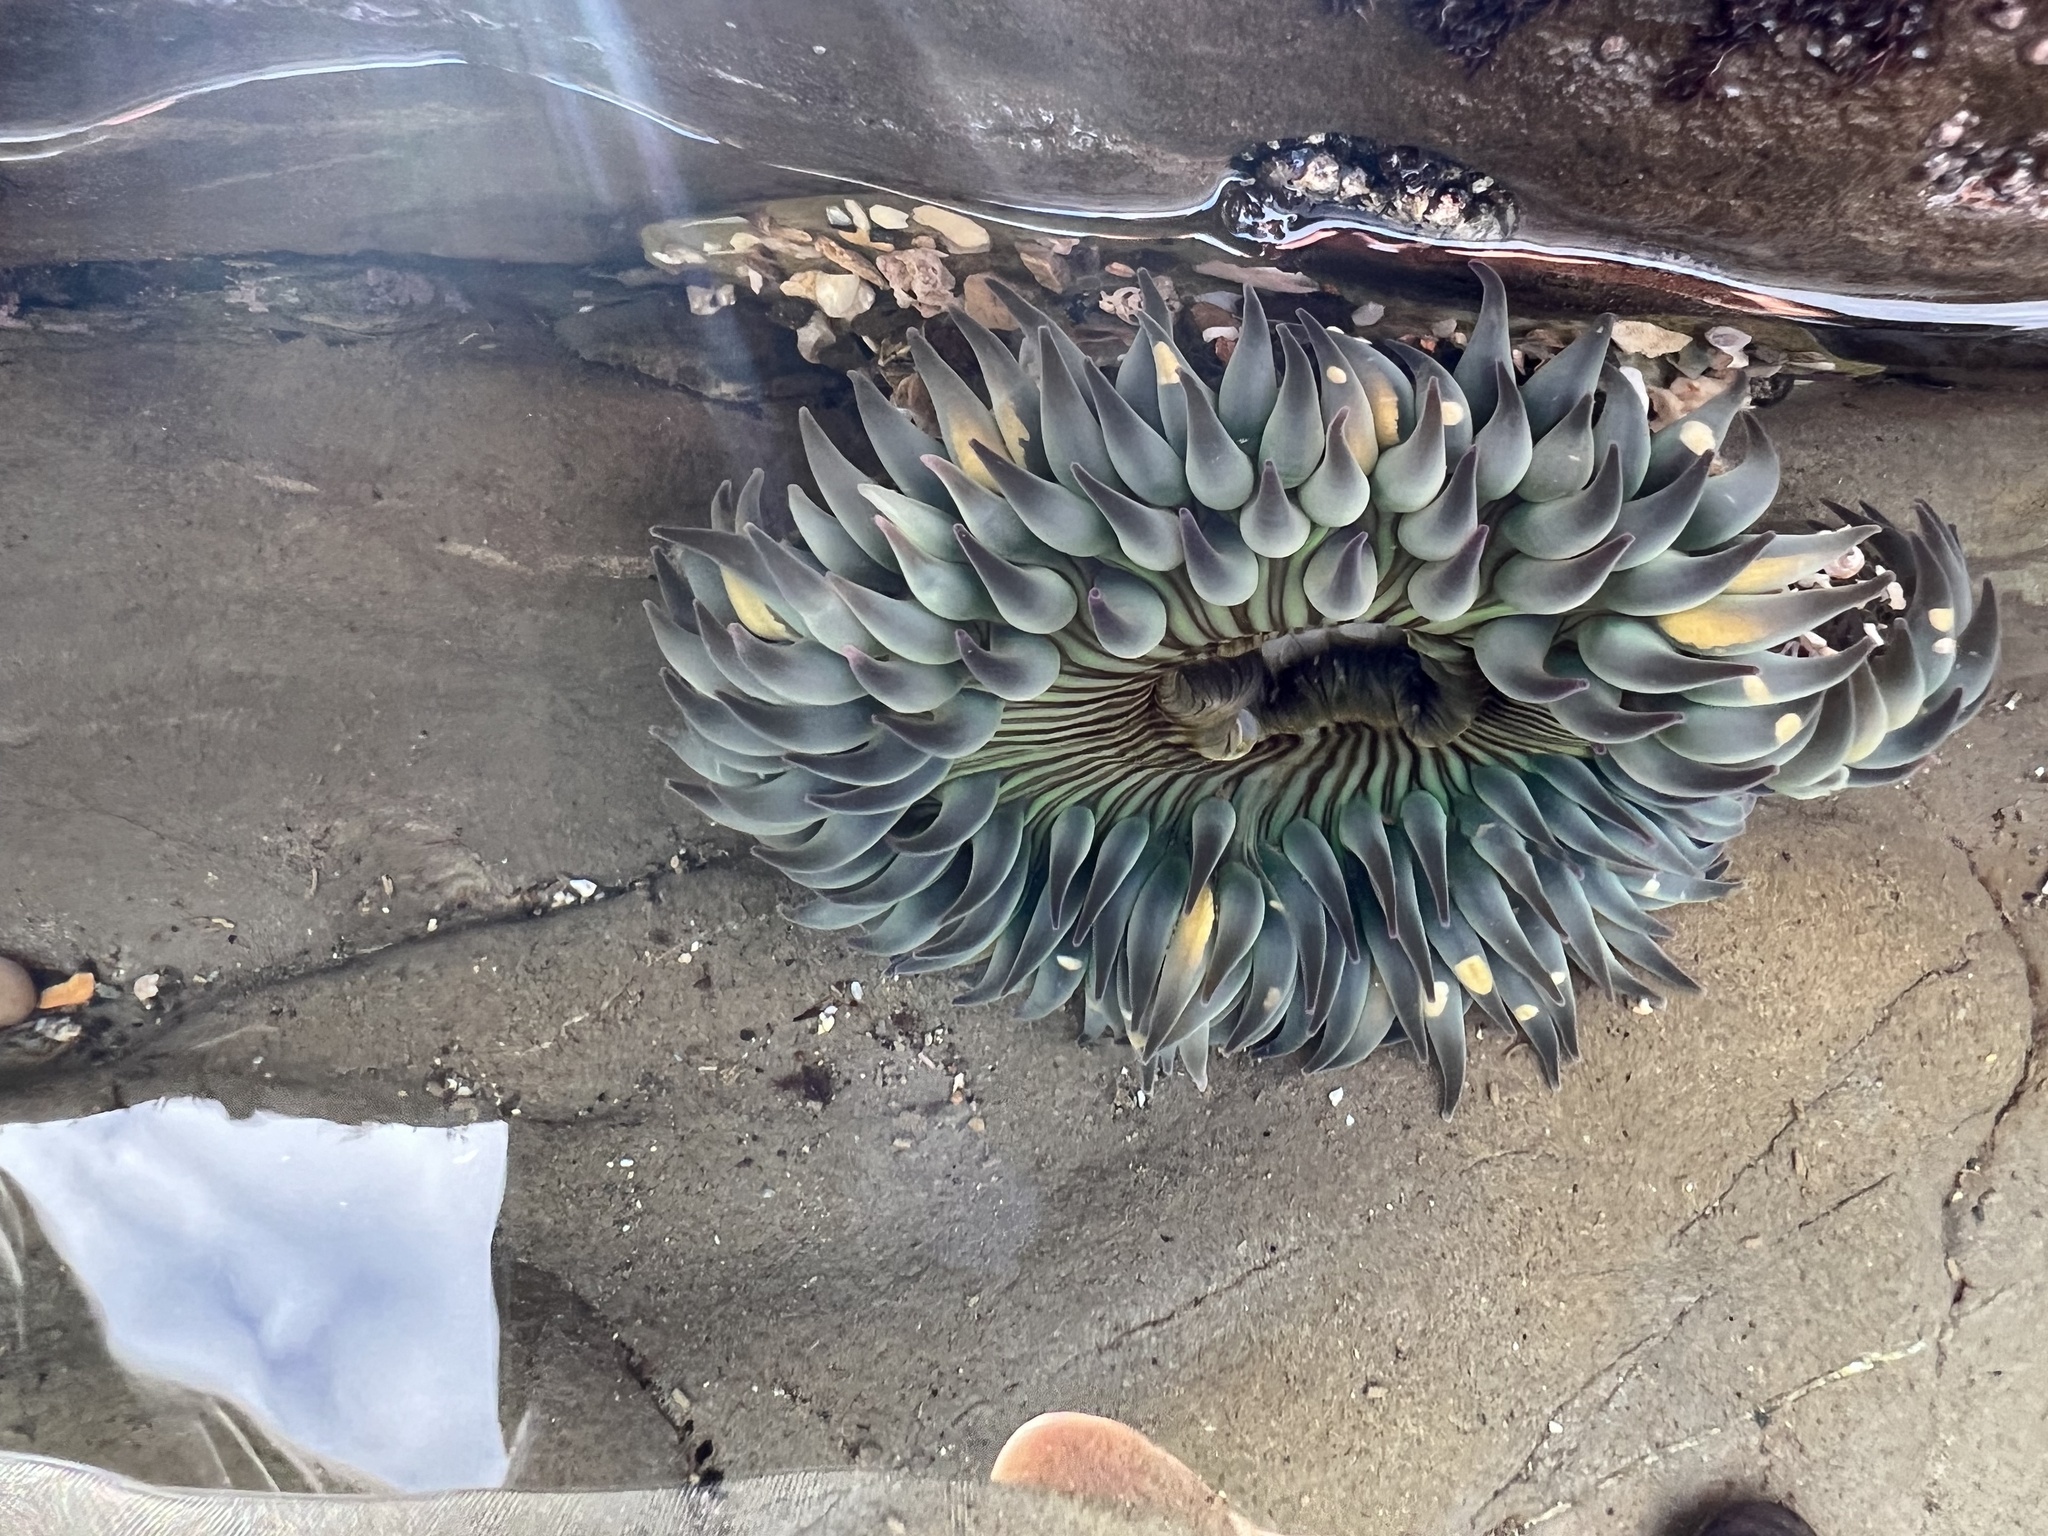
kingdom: Animalia
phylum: Cnidaria
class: Anthozoa
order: Actiniaria
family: Actiniidae
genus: Anthopleura
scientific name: Anthopleura sola
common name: Sun anemone
